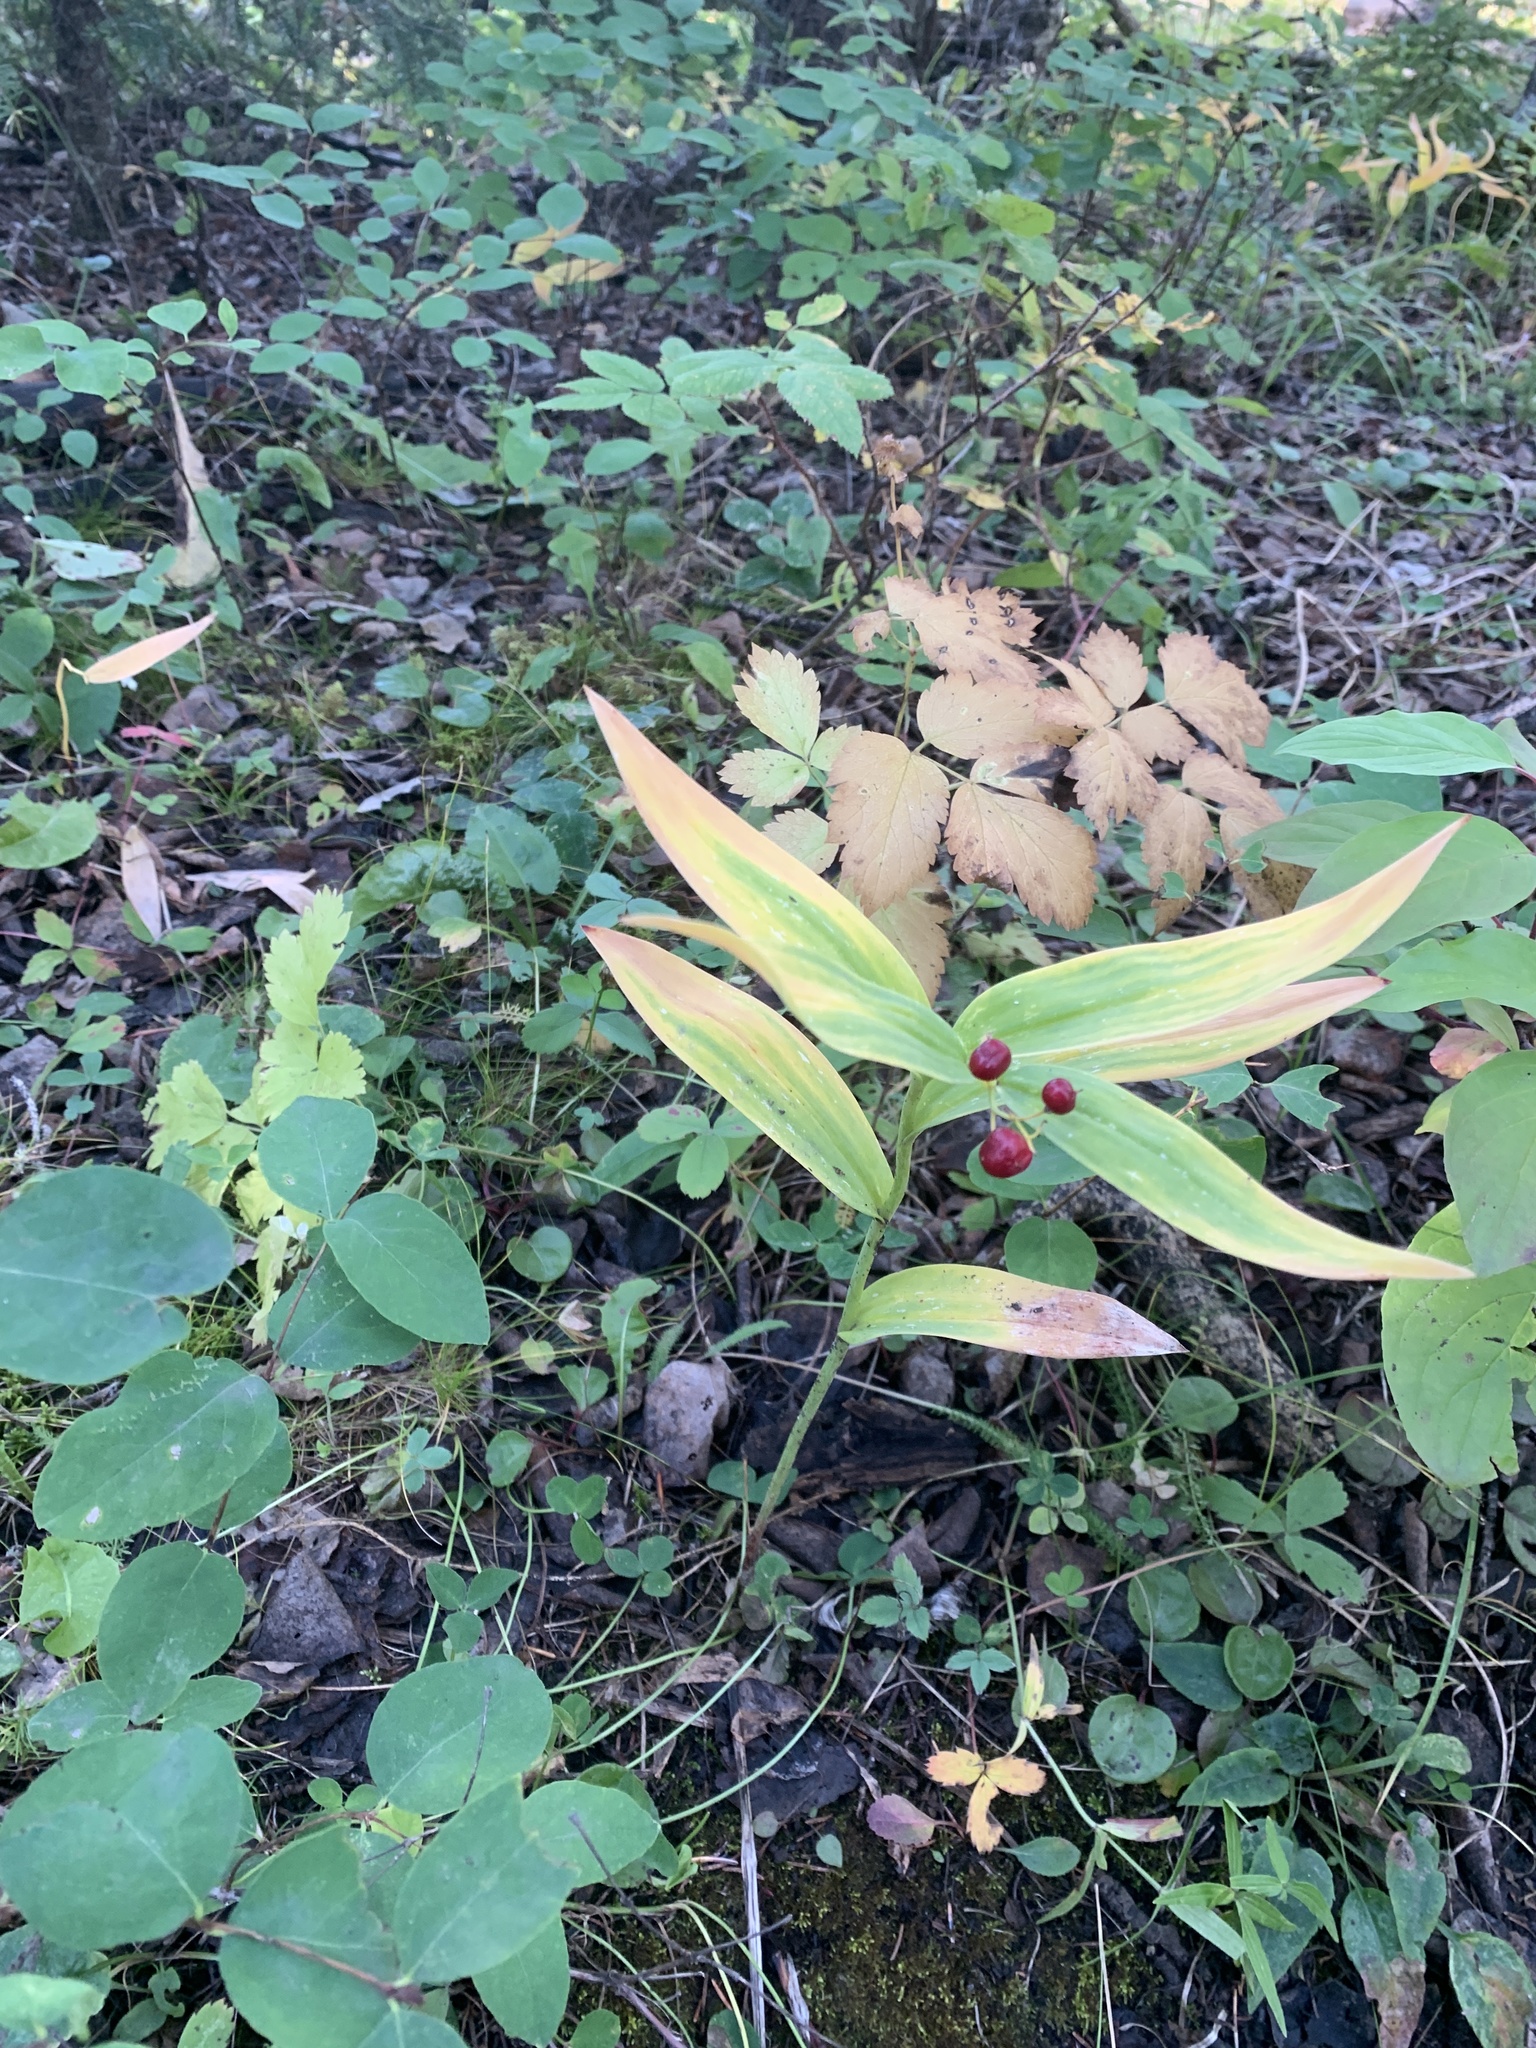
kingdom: Plantae
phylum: Tracheophyta
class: Liliopsida
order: Asparagales
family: Asparagaceae
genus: Maianthemum
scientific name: Maianthemum stellatum
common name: Little false solomon's seal
